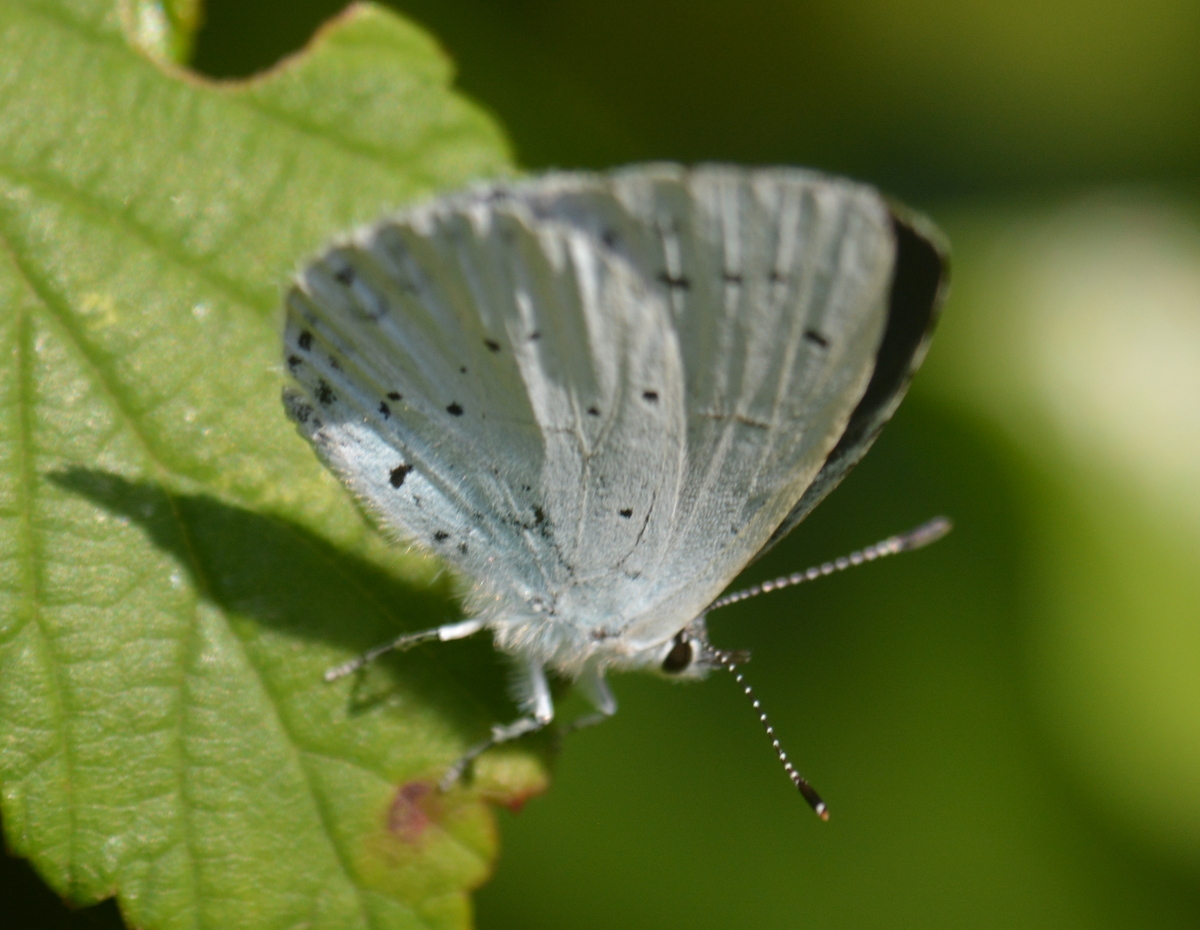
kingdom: Animalia
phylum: Arthropoda
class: Insecta
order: Lepidoptera
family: Lycaenidae
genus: Celastrina
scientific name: Celastrina argiolus
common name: Holly blue
